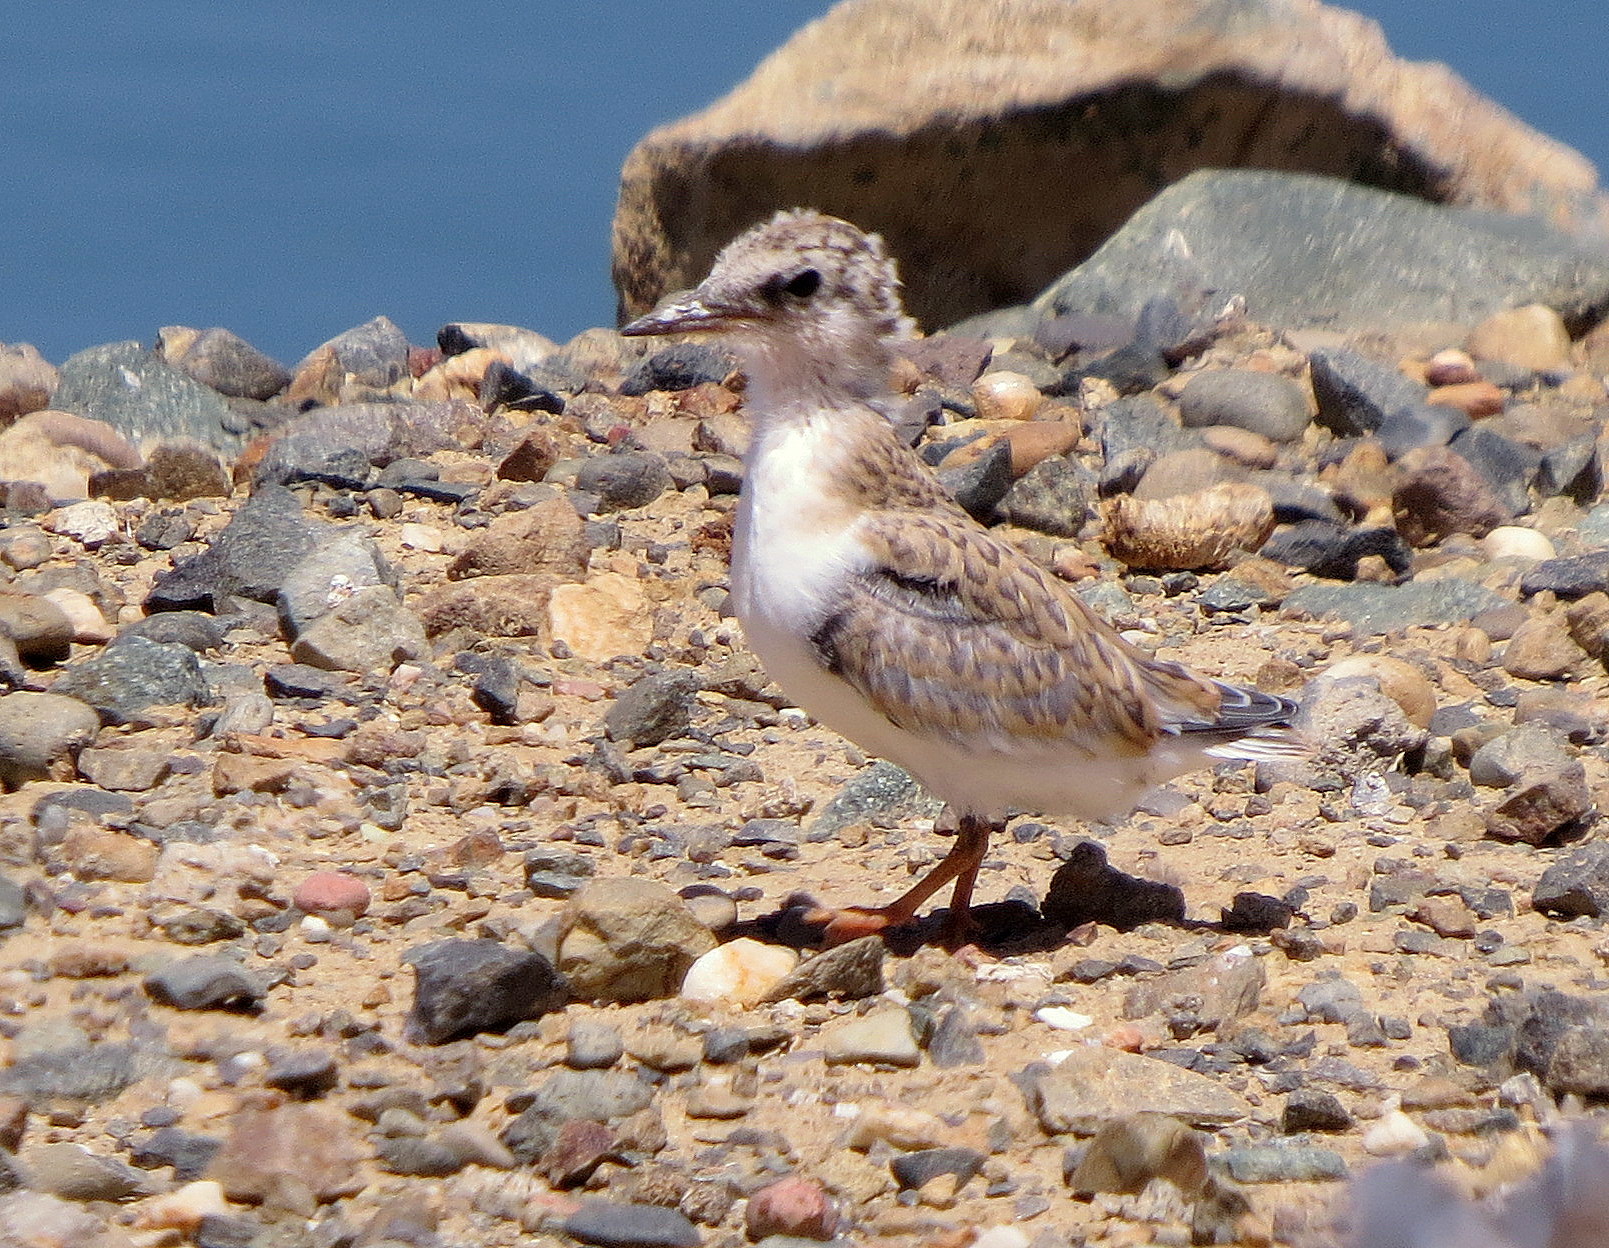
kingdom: Animalia
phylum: Chordata
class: Aves
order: Charadriiformes
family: Laridae
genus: Sternula
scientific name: Sternula antillarum
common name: Least tern
